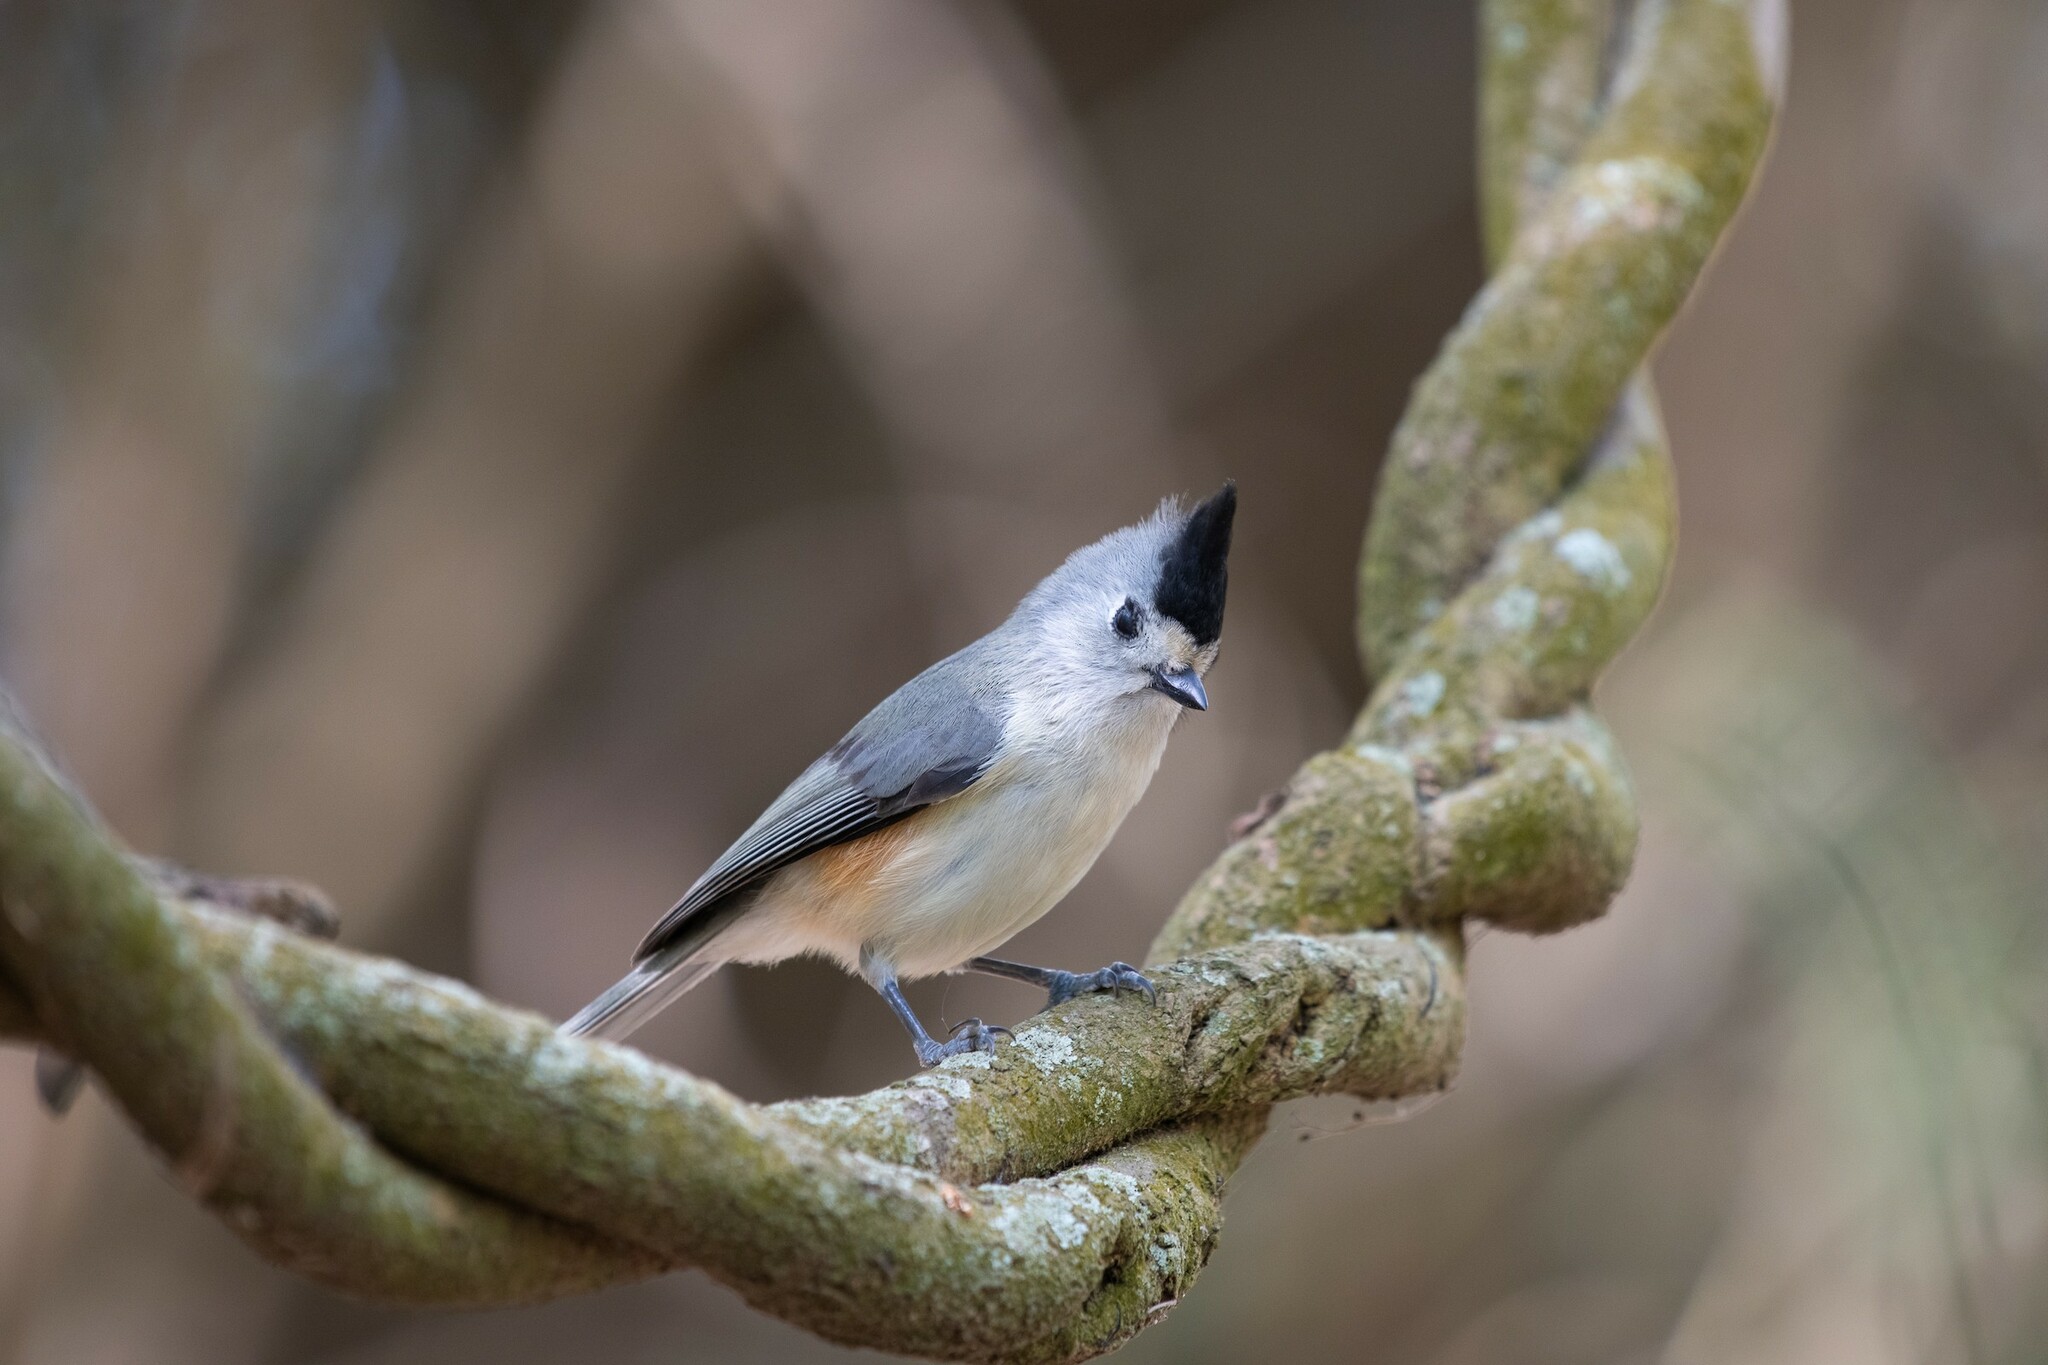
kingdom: Animalia
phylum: Chordata
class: Aves
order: Passeriformes
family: Paridae
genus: Baeolophus
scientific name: Baeolophus atricristatus
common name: Black-crested titmouse
